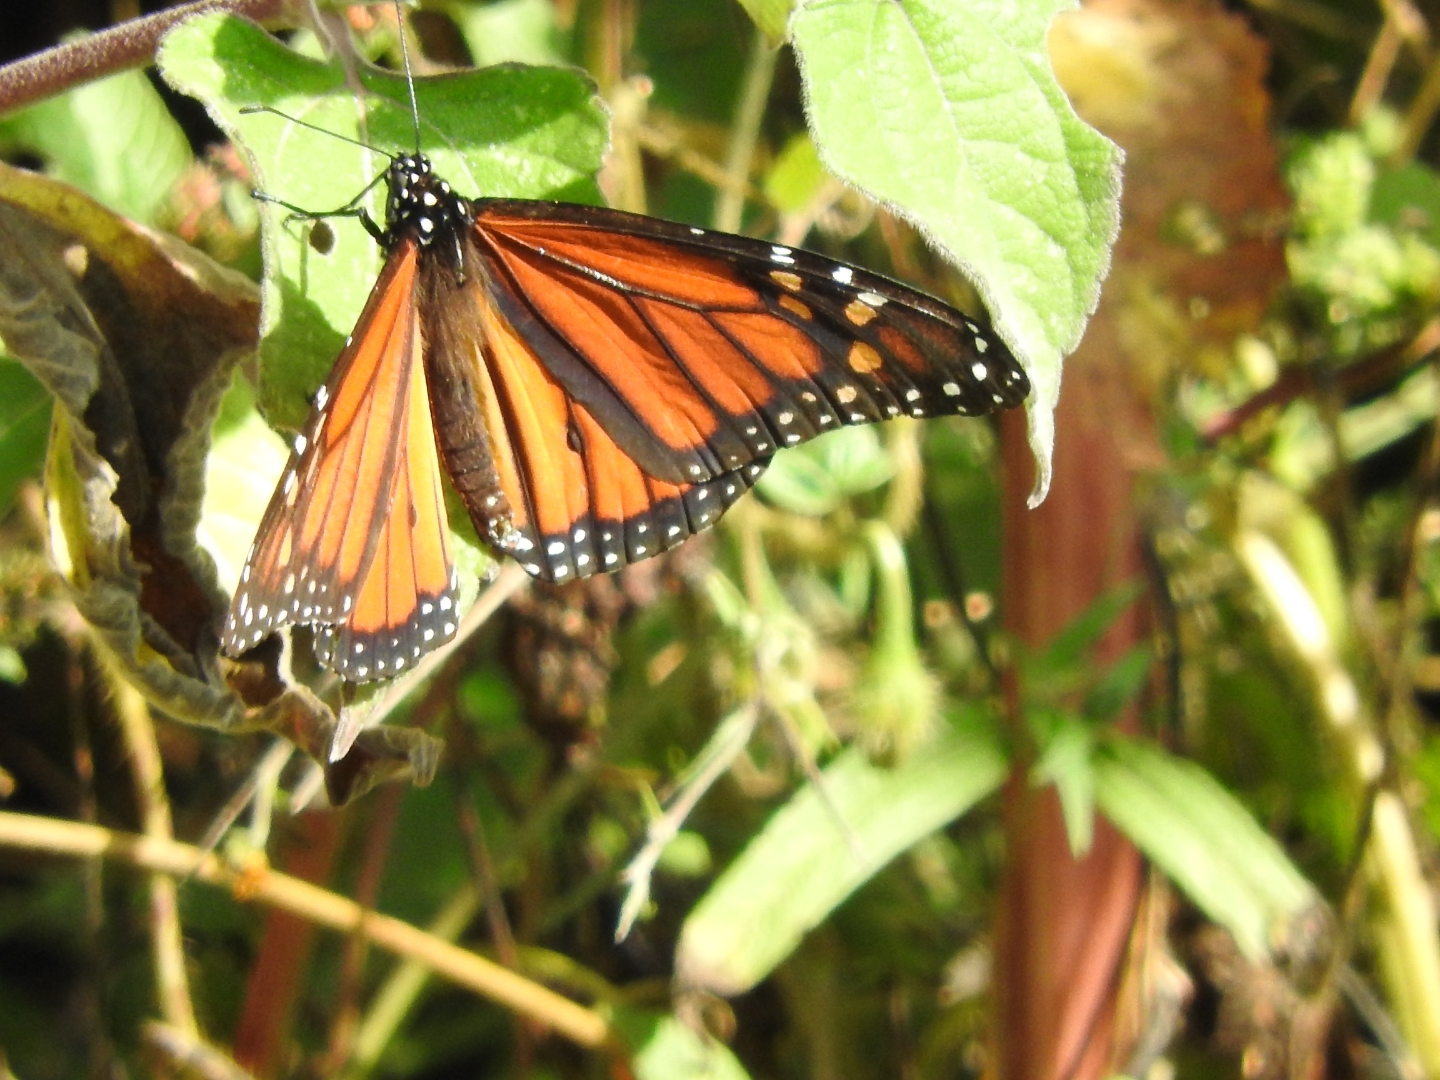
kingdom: Animalia
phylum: Arthropoda
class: Insecta
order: Lepidoptera
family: Nymphalidae
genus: Danaus
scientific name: Danaus plexippus
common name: Monarch
